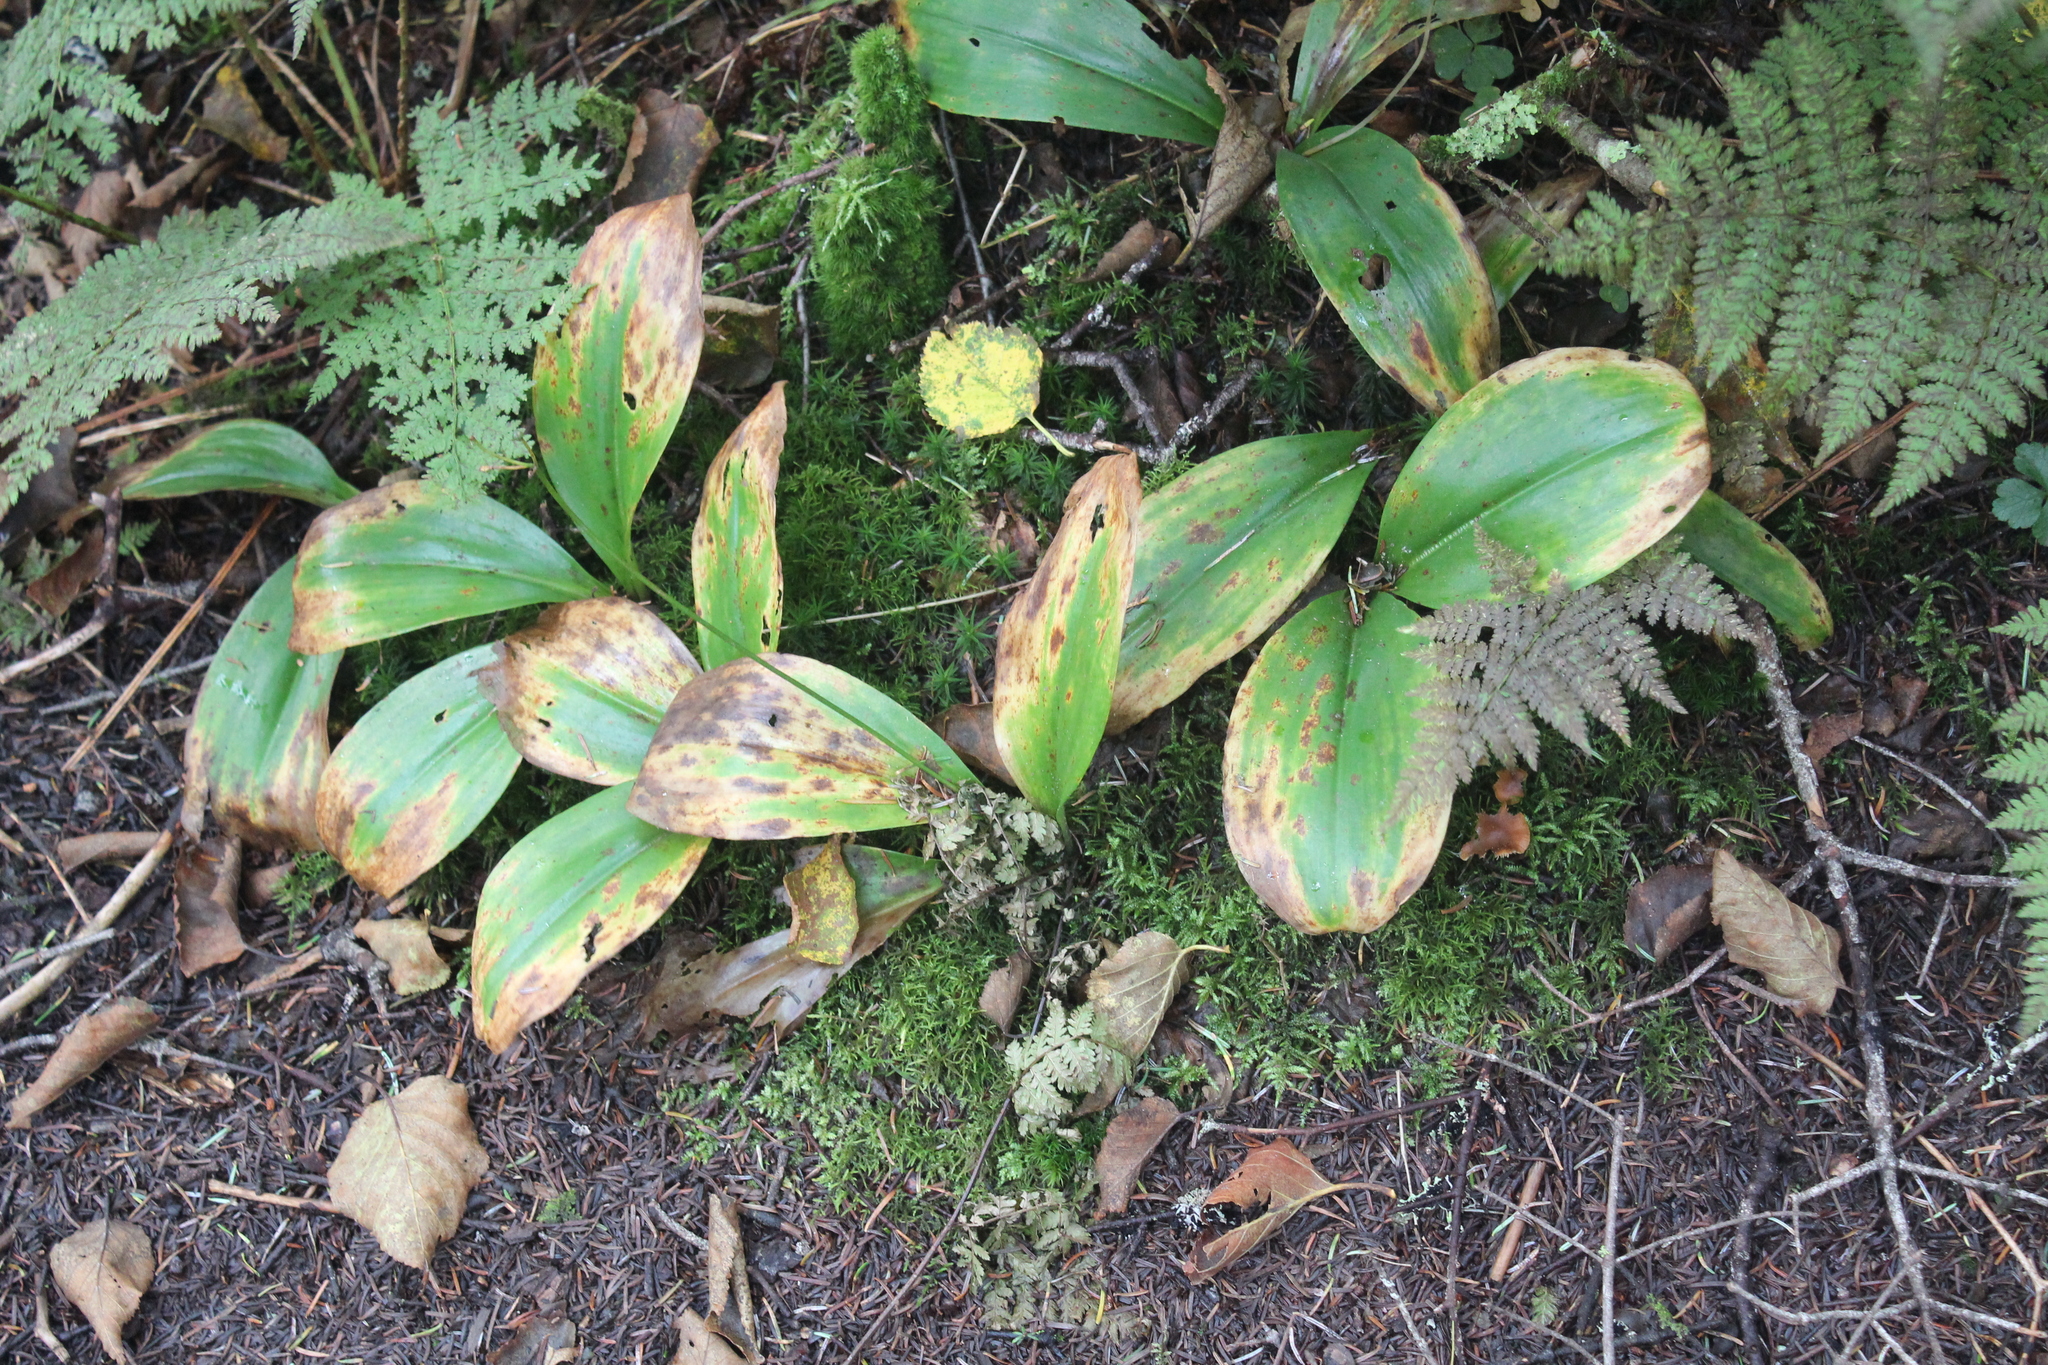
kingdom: Plantae
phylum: Tracheophyta
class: Liliopsida
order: Liliales
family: Liliaceae
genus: Clintonia
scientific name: Clintonia borealis
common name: Yellow clintonia
